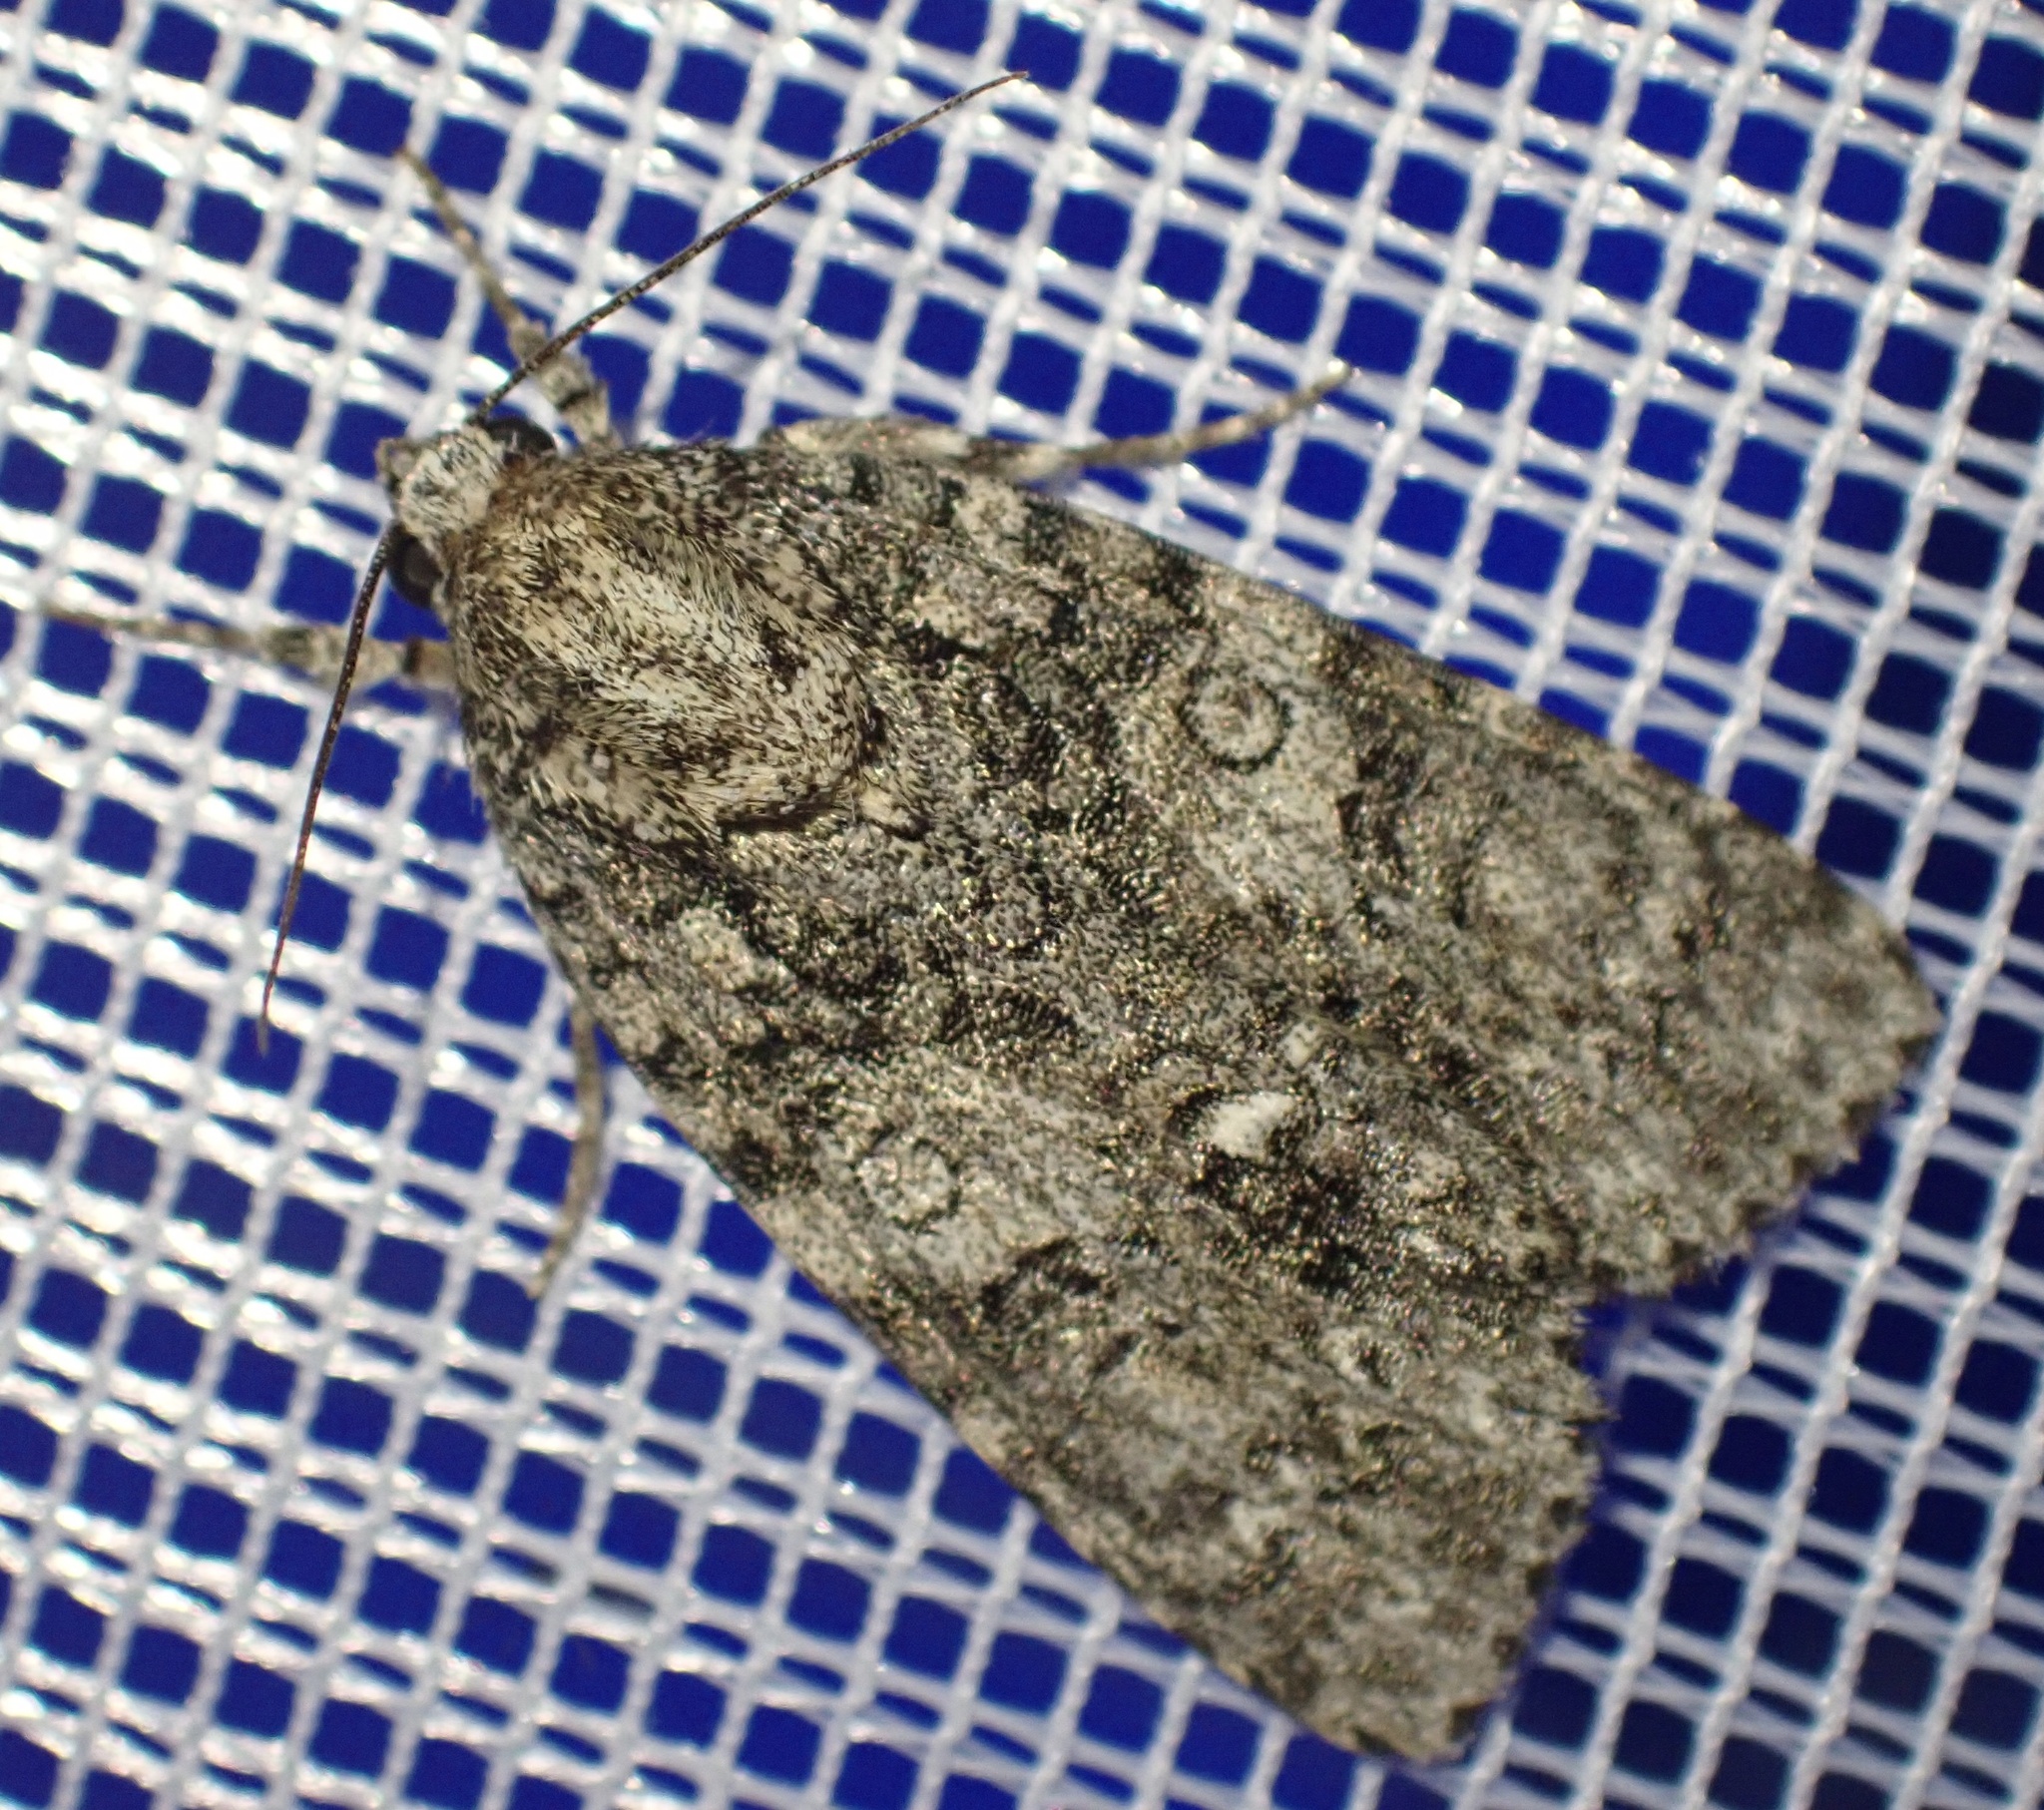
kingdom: Animalia
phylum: Arthropoda
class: Insecta
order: Lepidoptera
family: Noctuidae
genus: Acronicta
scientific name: Acronicta rumicis
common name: Knot grass
